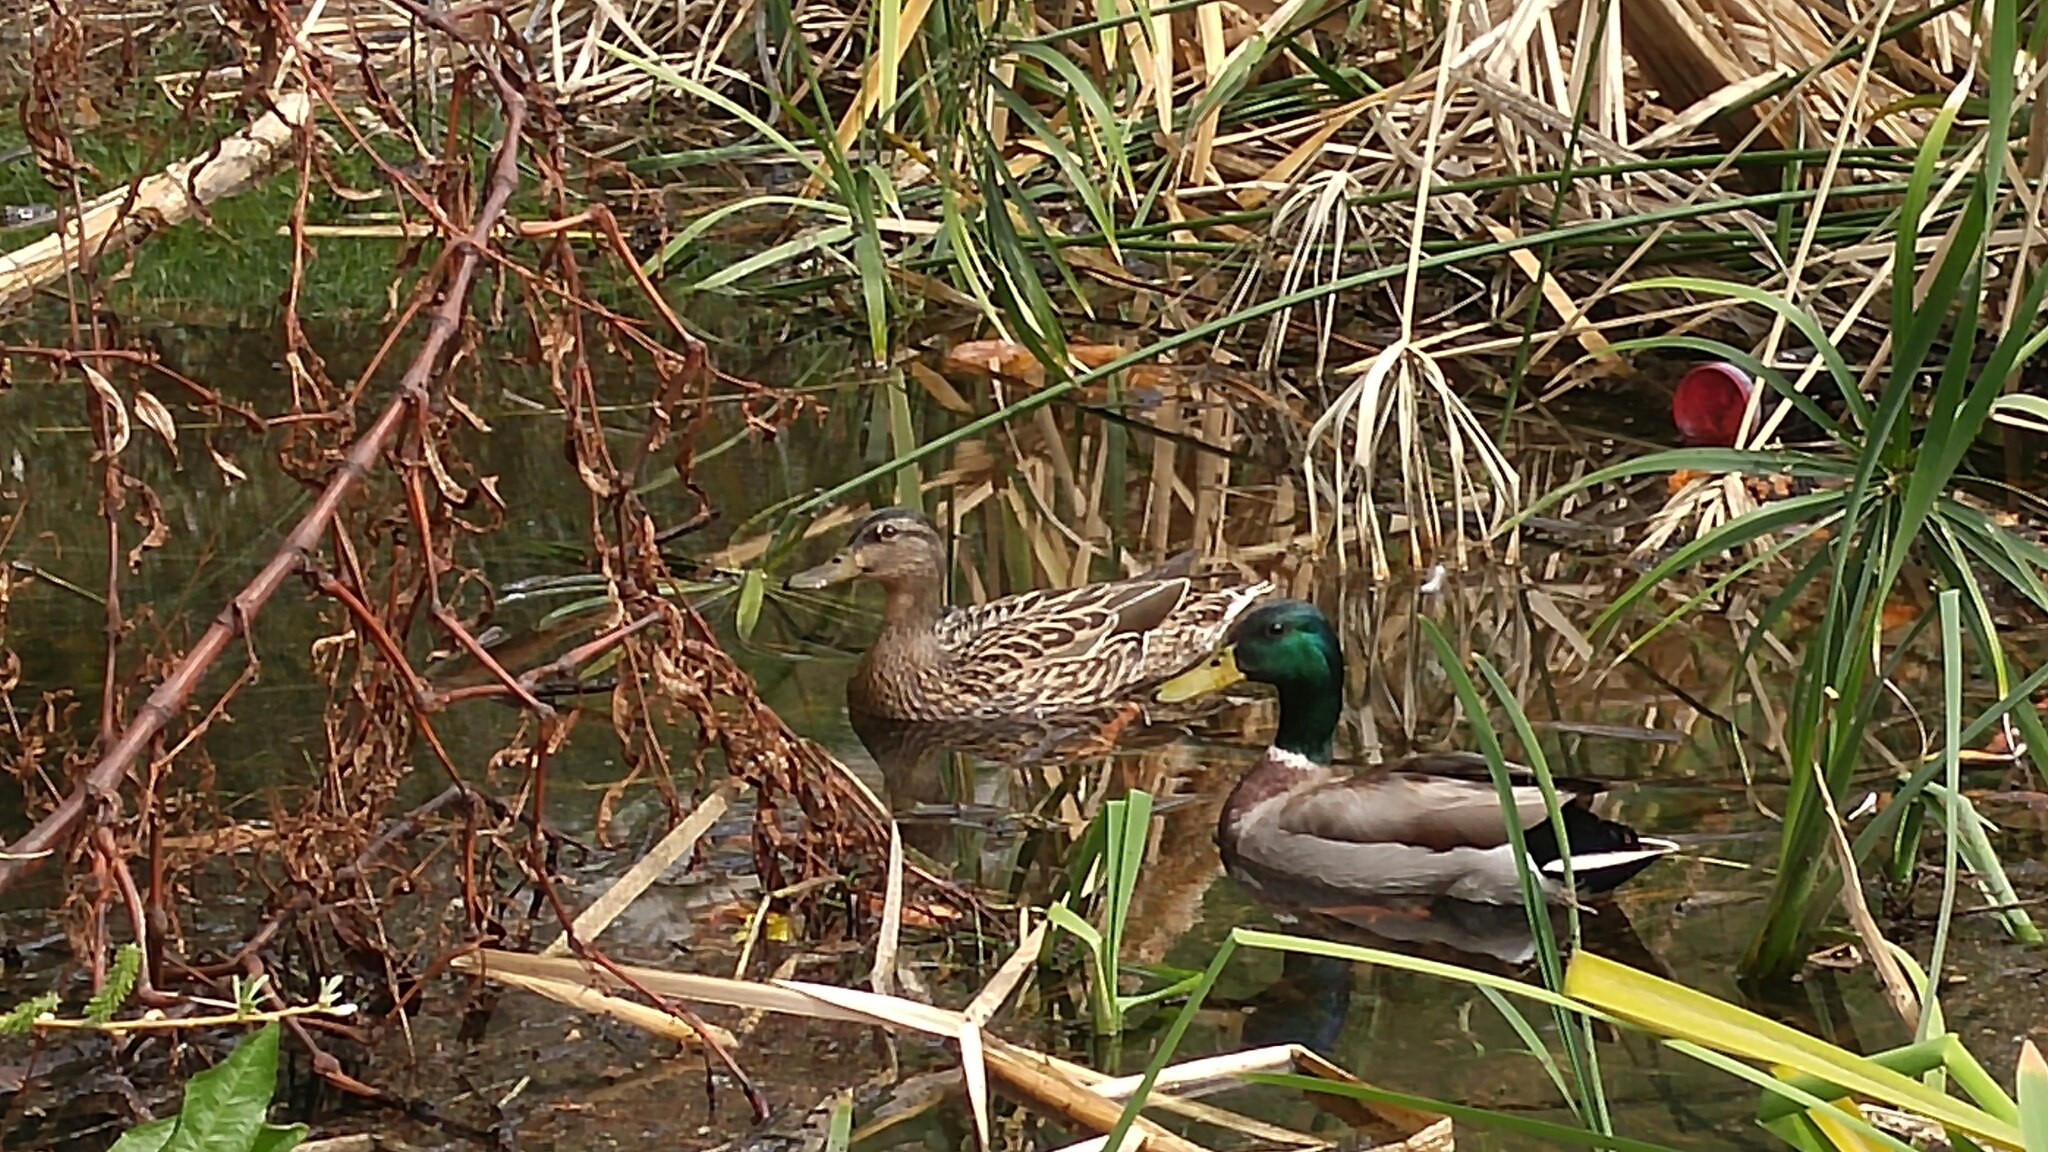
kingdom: Animalia
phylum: Chordata
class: Aves
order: Anseriformes
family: Anatidae
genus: Anas
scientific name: Anas platyrhynchos
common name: Mallard
